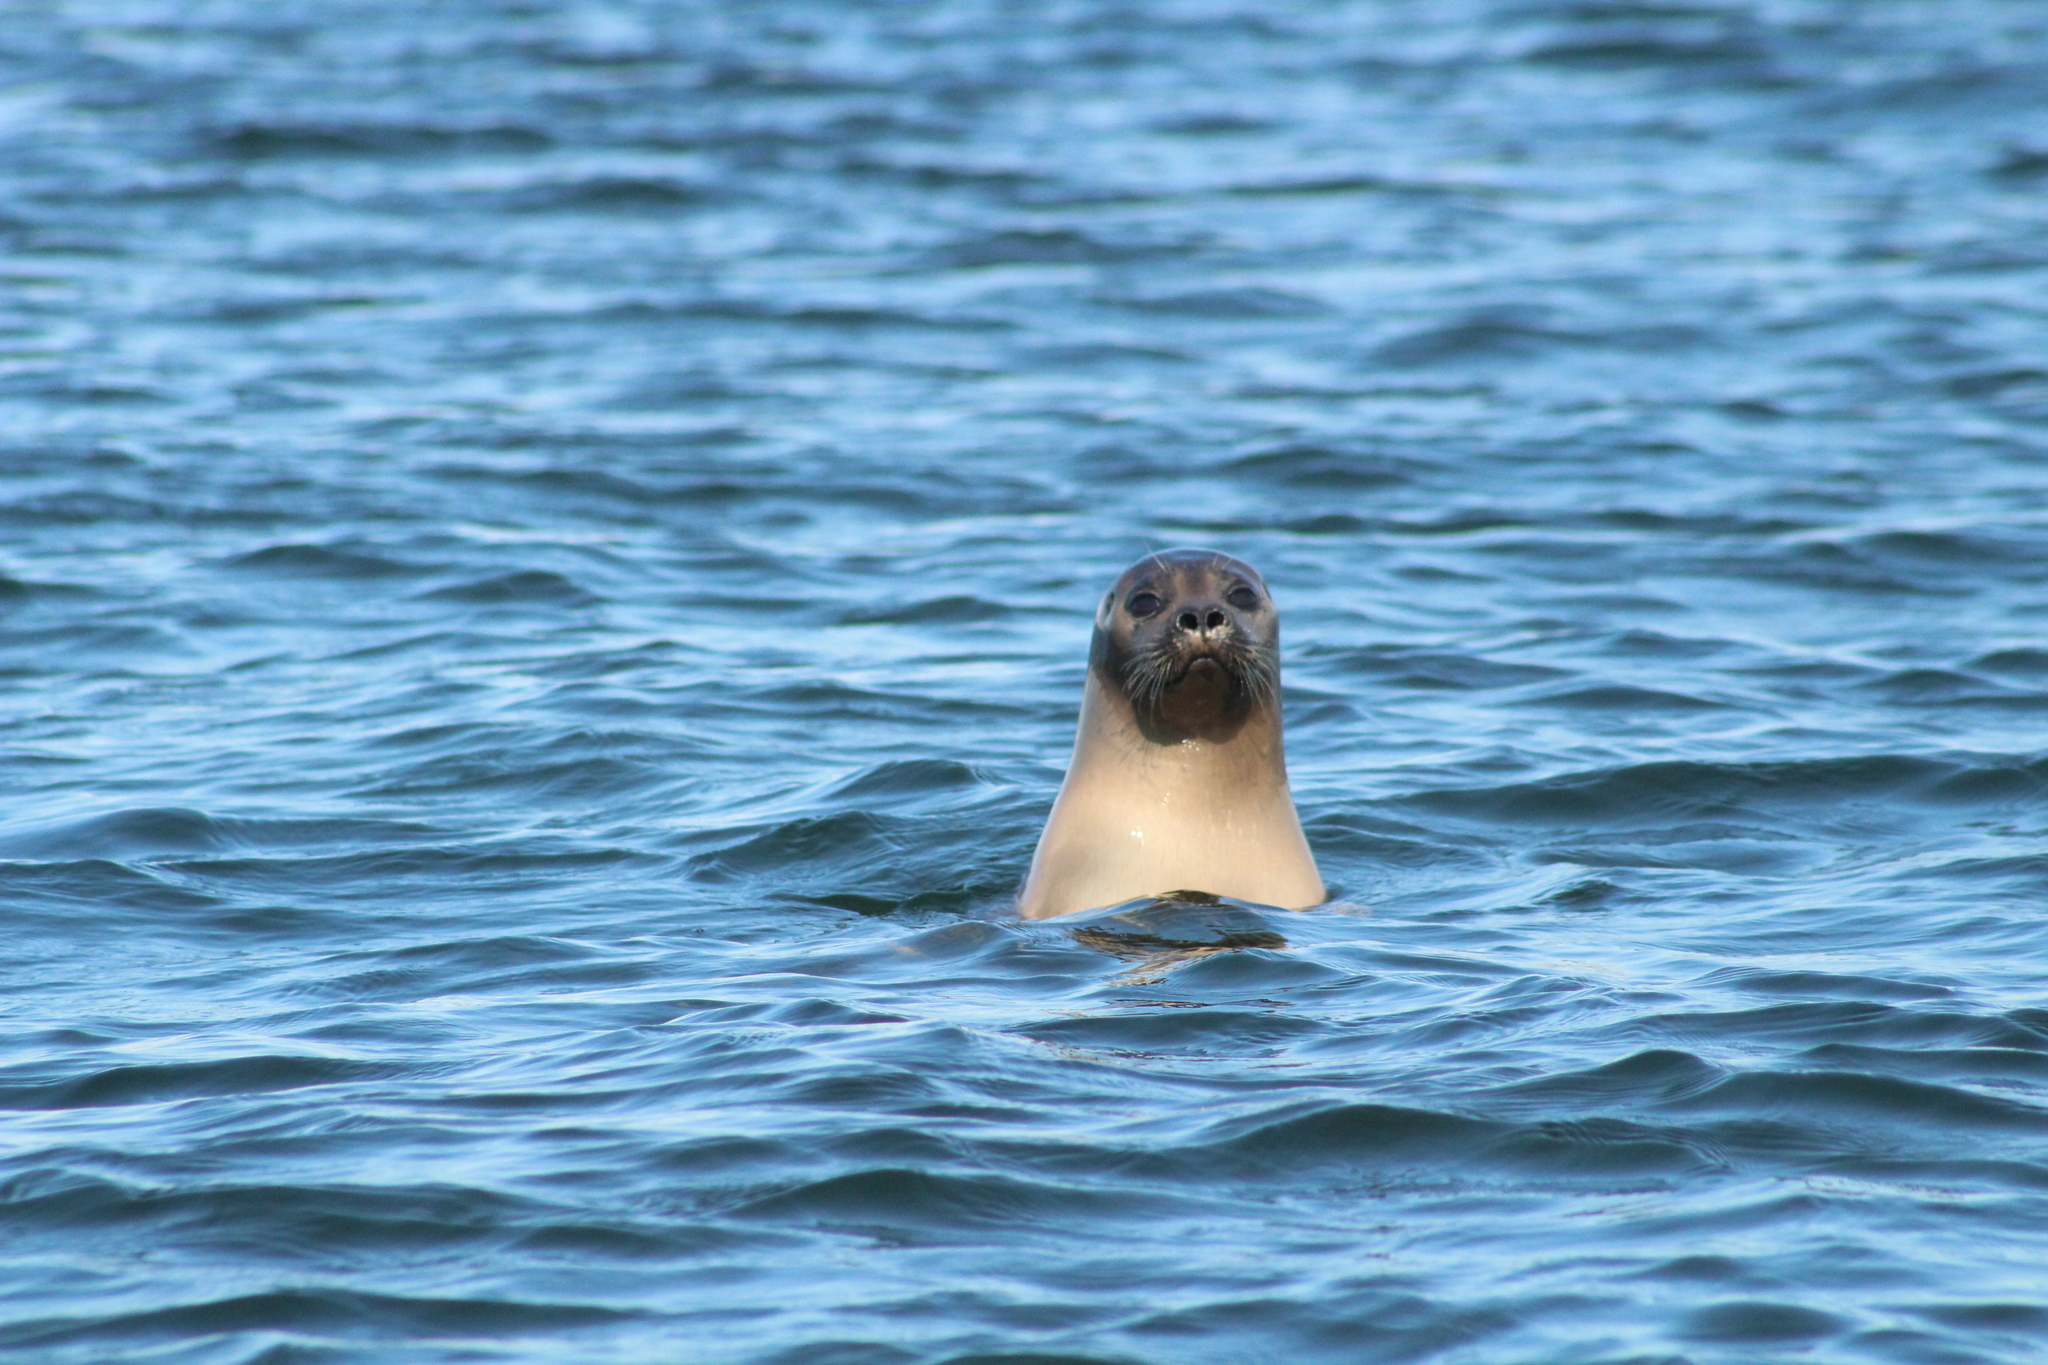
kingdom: Animalia
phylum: Chordata
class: Mammalia
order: Carnivora
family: Phocidae
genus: Phoca
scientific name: Phoca vitulina
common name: Harbor seal
